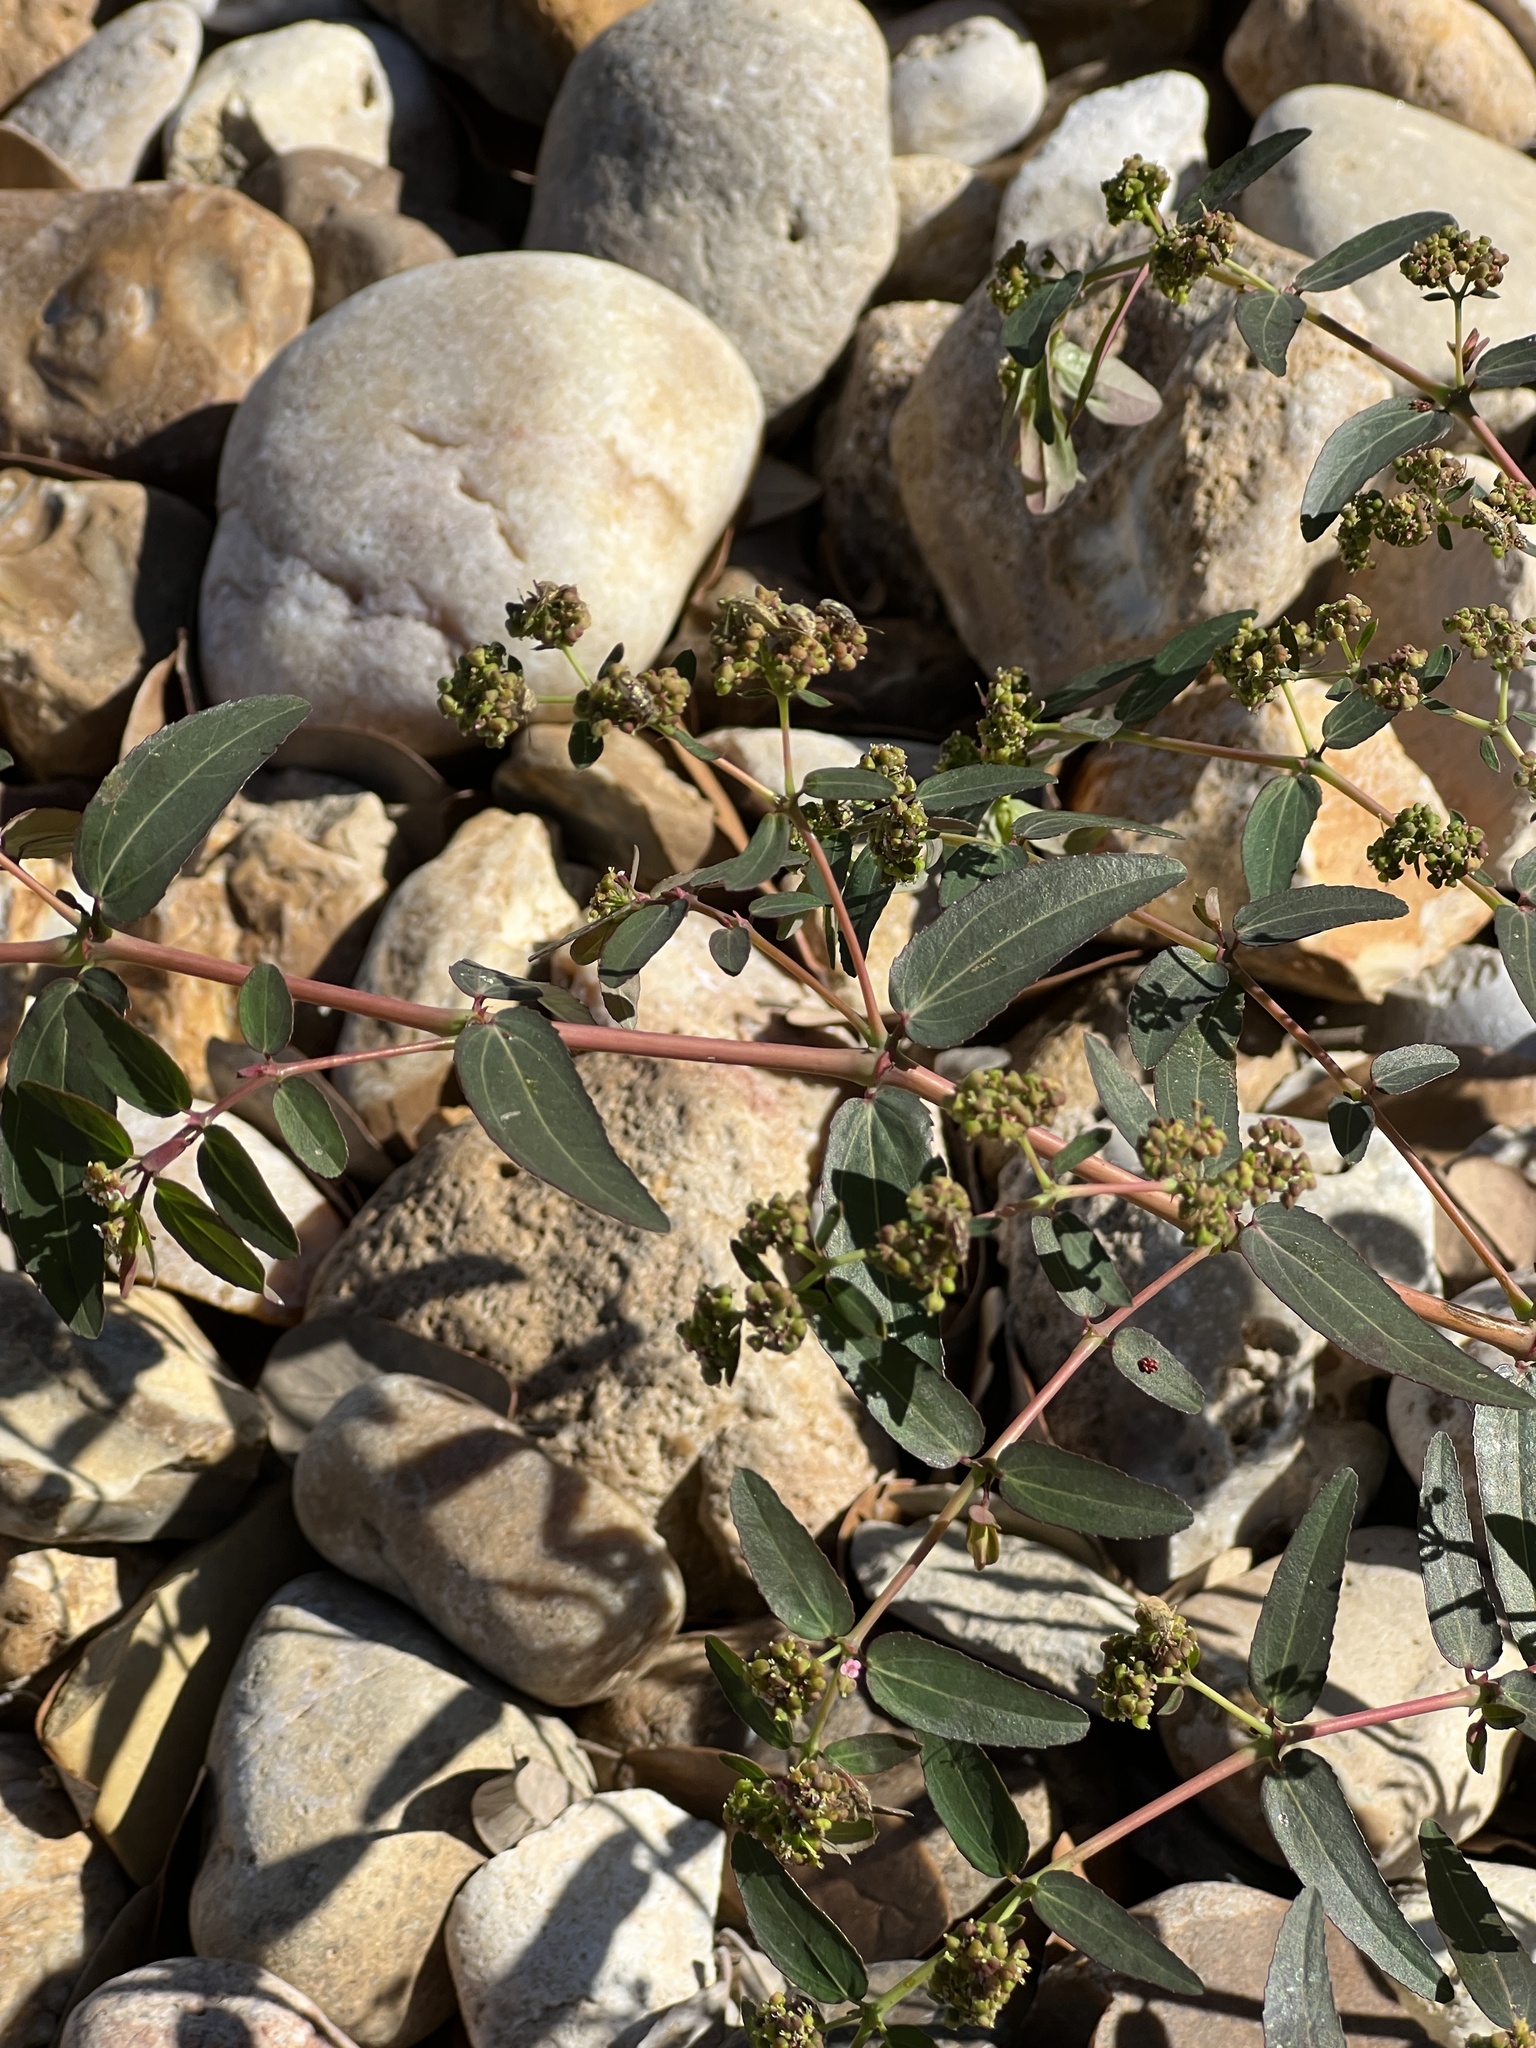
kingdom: Plantae
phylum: Tracheophyta
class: Magnoliopsida
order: Malpighiales
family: Euphorbiaceae
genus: Euphorbia
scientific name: Euphorbia hypericifolia
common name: Graceful sandmat
